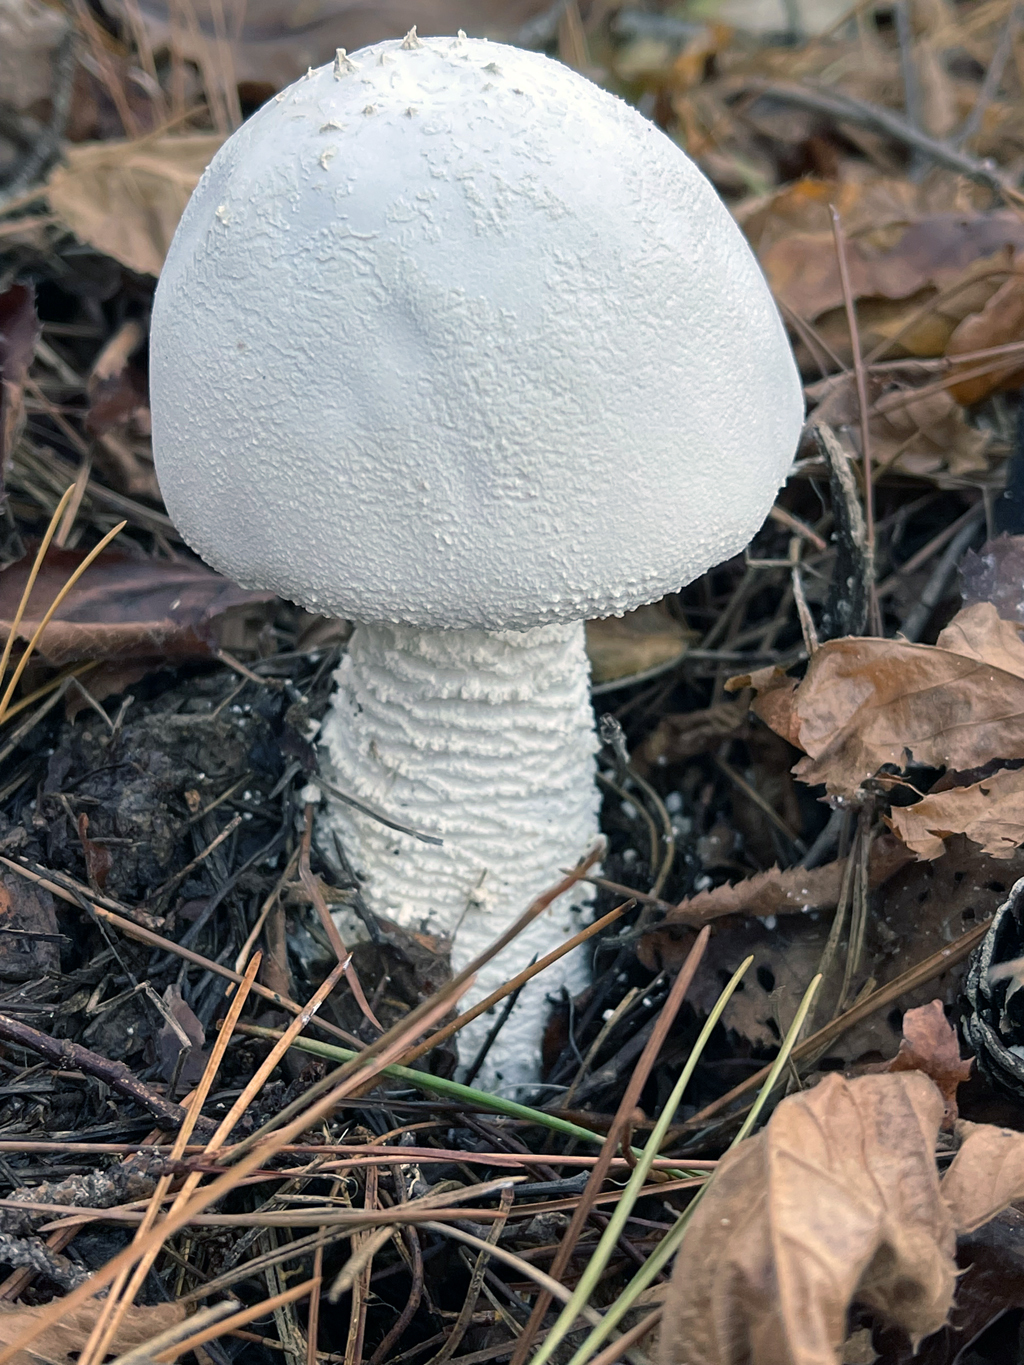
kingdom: Fungi
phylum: Basidiomycota
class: Agaricomycetes
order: Agaricales
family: Amanitaceae
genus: Amanita
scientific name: Amanita polypyramis
